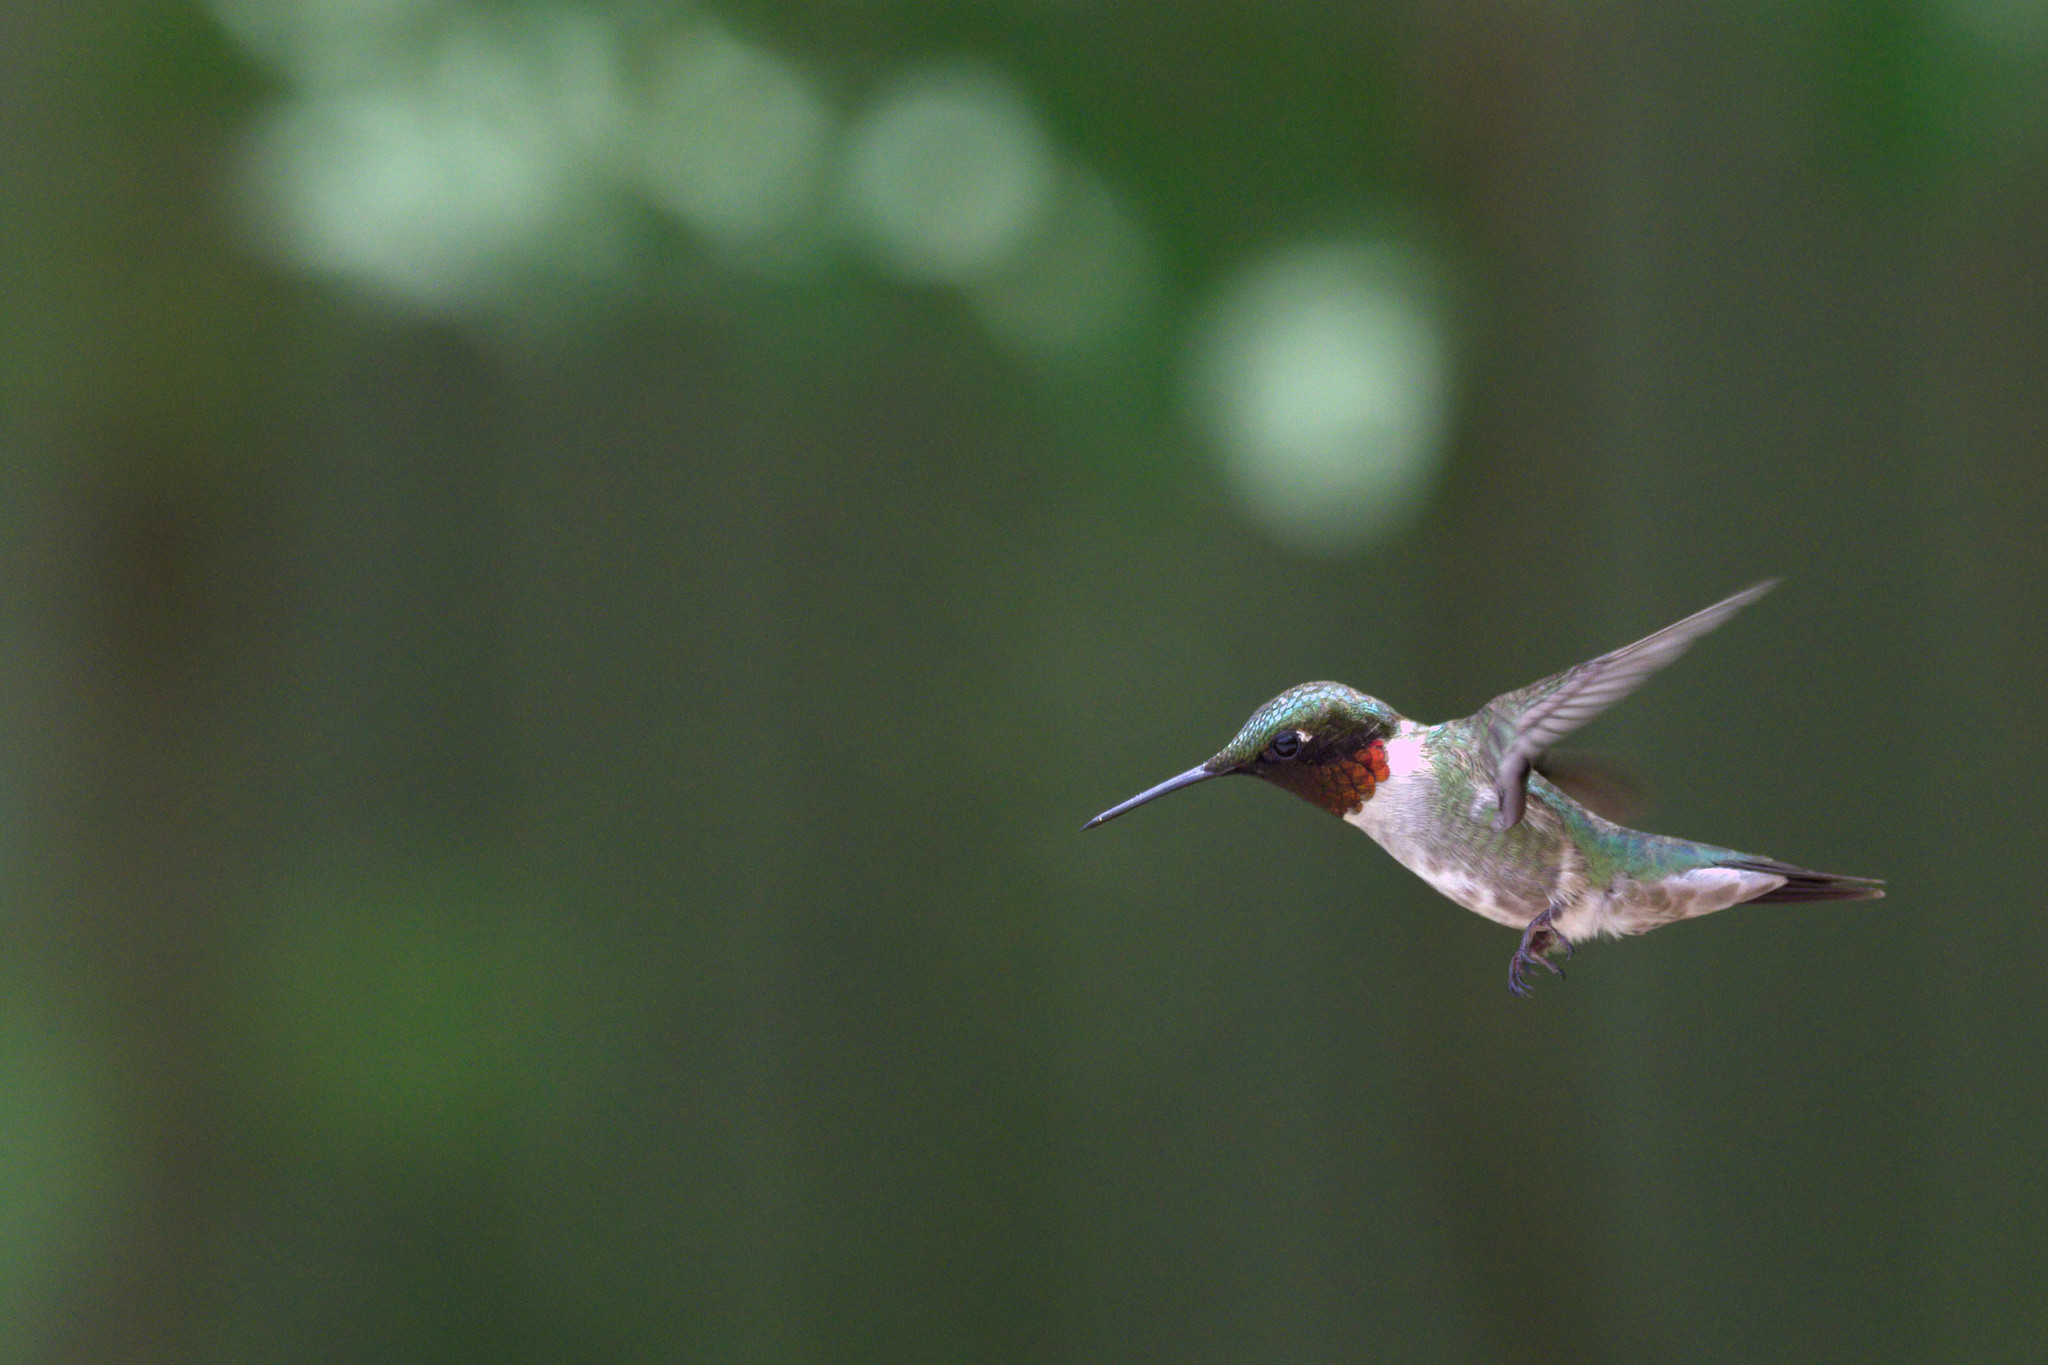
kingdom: Animalia
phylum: Chordata
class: Aves
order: Apodiformes
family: Trochilidae
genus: Archilochus
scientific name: Archilochus colubris
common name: Ruby-throated hummingbird
